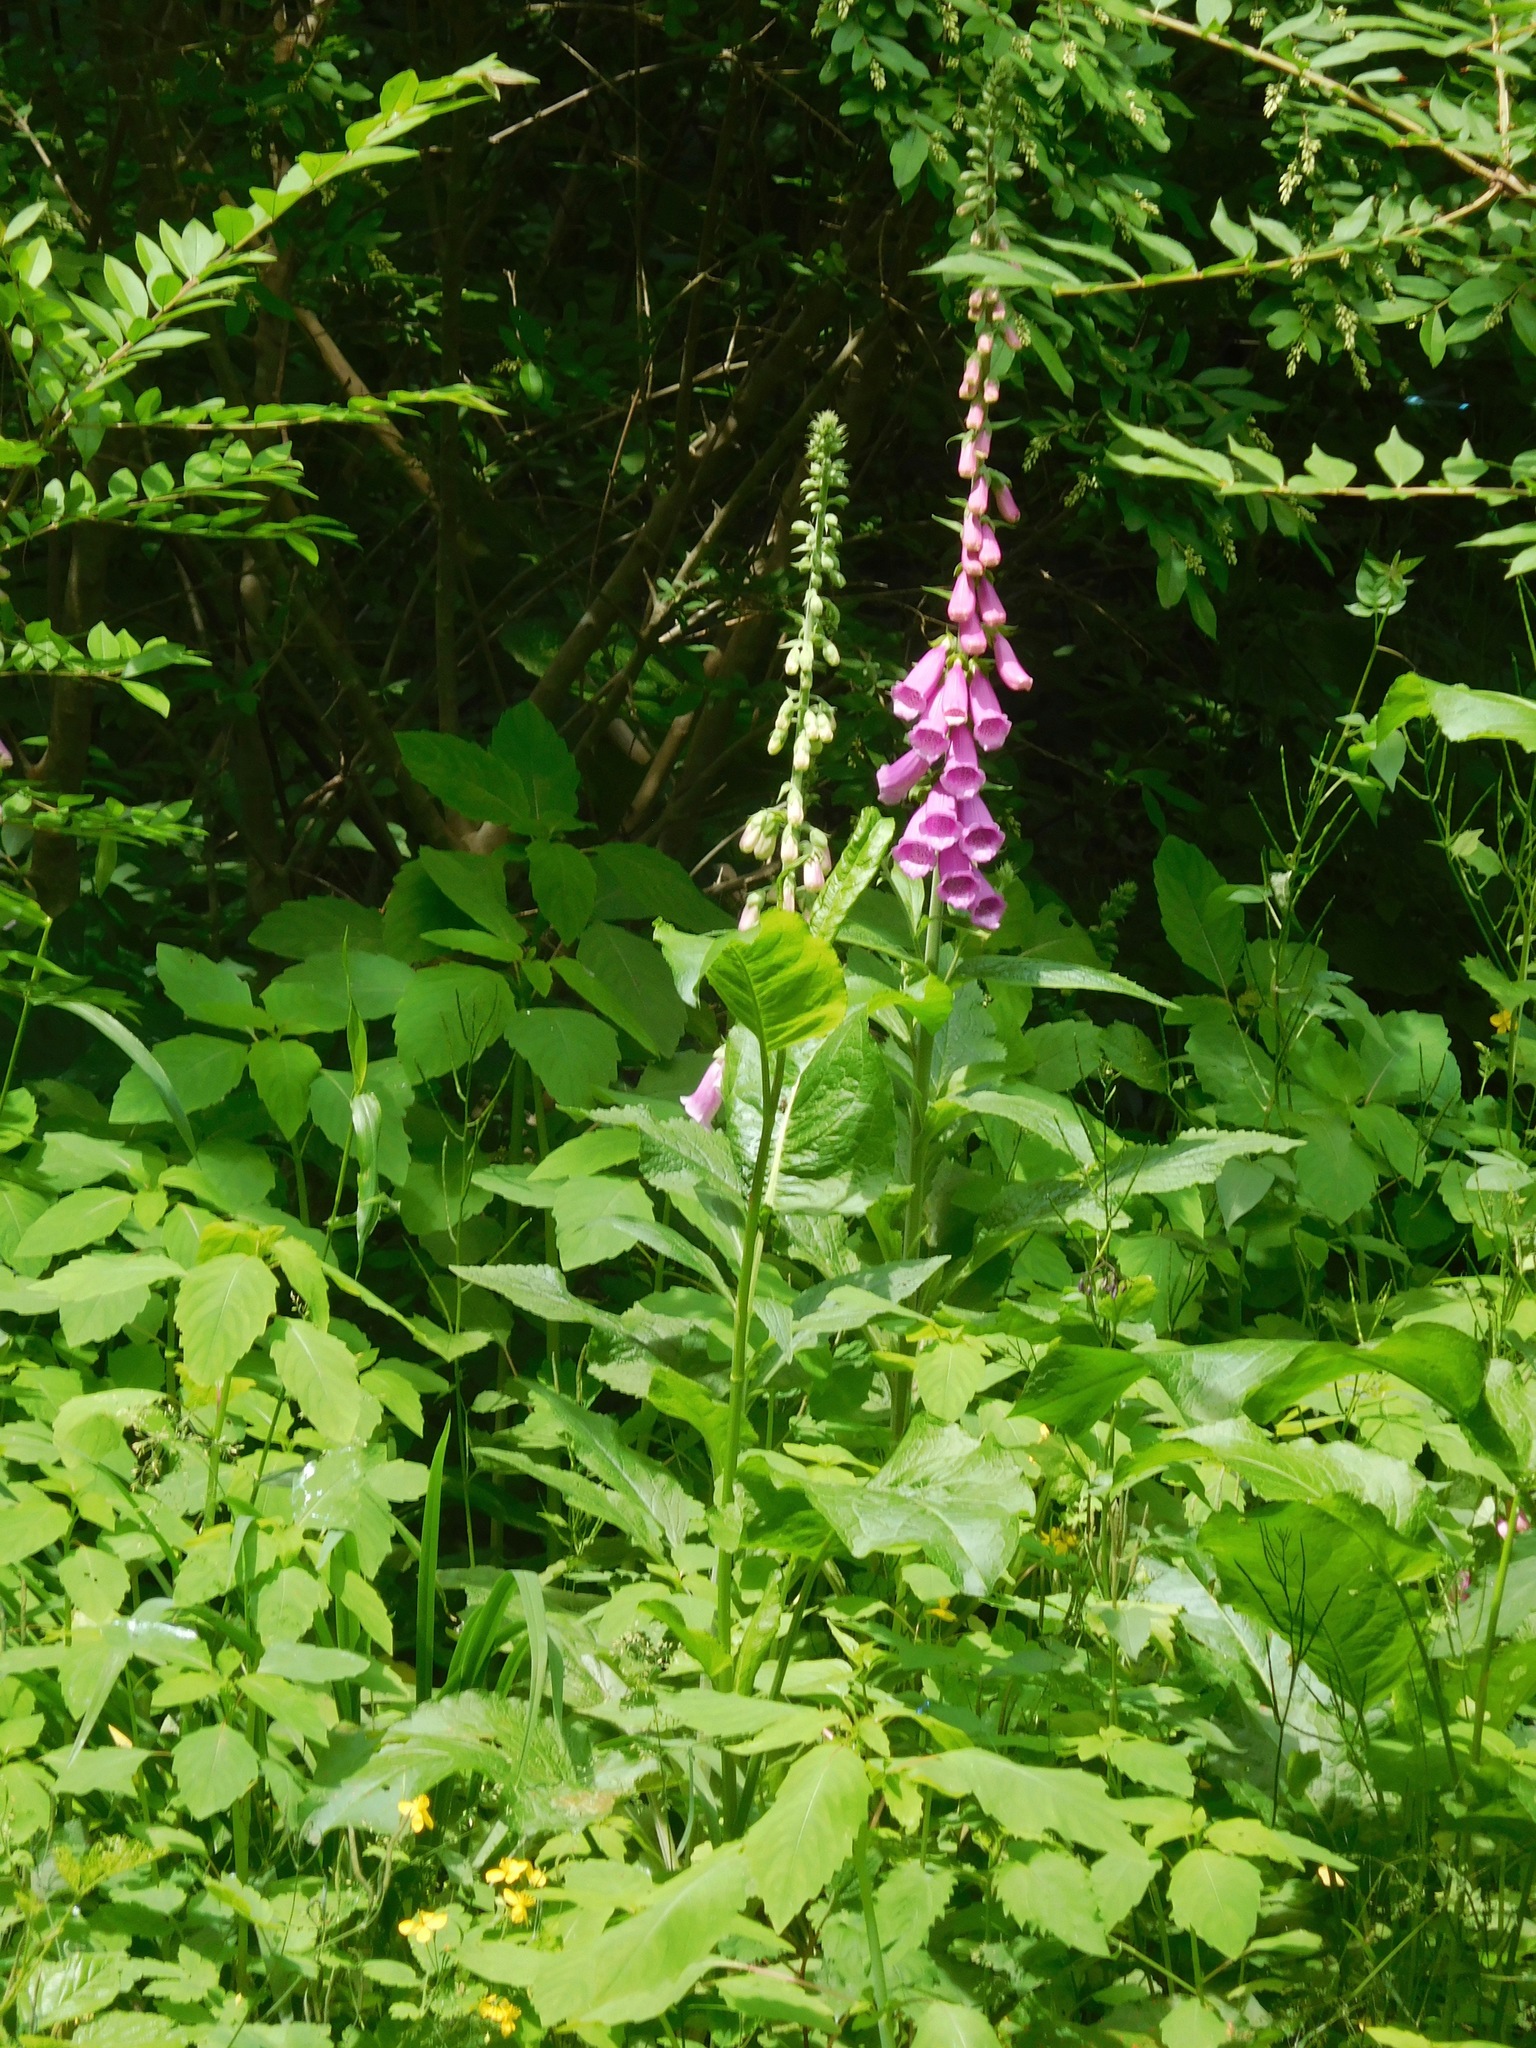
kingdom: Plantae
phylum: Tracheophyta
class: Magnoliopsida
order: Lamiales
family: Plantaginaceae
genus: Digitalis
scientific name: Digitalis purpurea
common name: Foxglove
